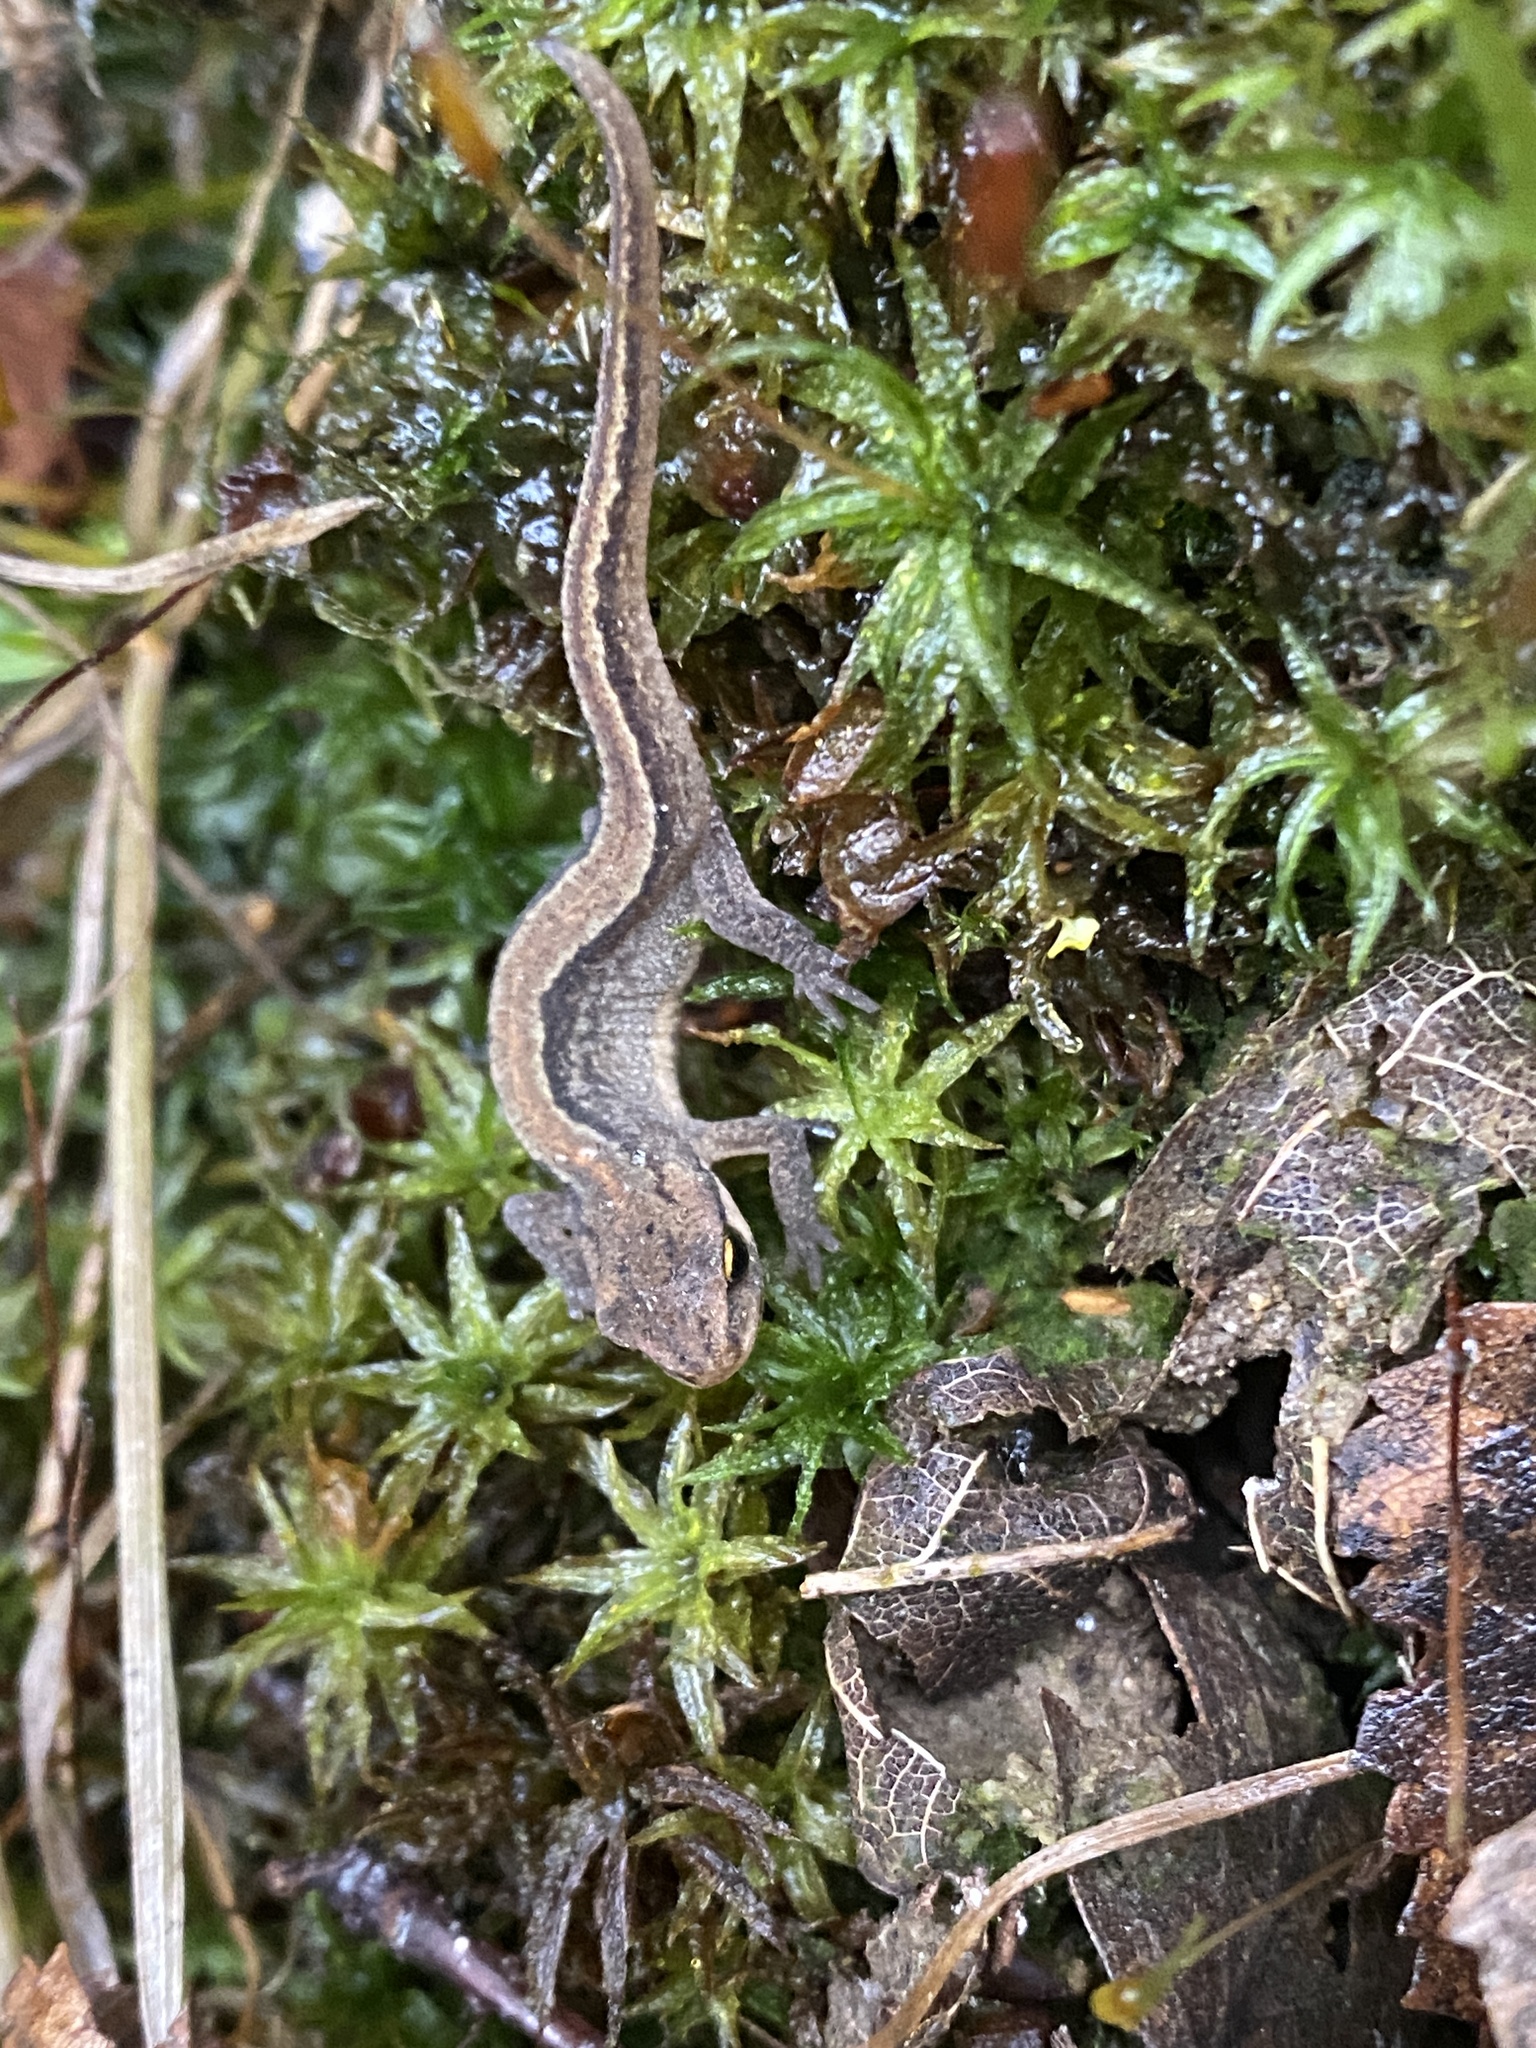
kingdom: Animalia
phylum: Chordata
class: Amphibia
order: Caudata
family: Salamandridae
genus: Lissotriton
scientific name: Lissotriton vulgaris
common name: Smooth newt
